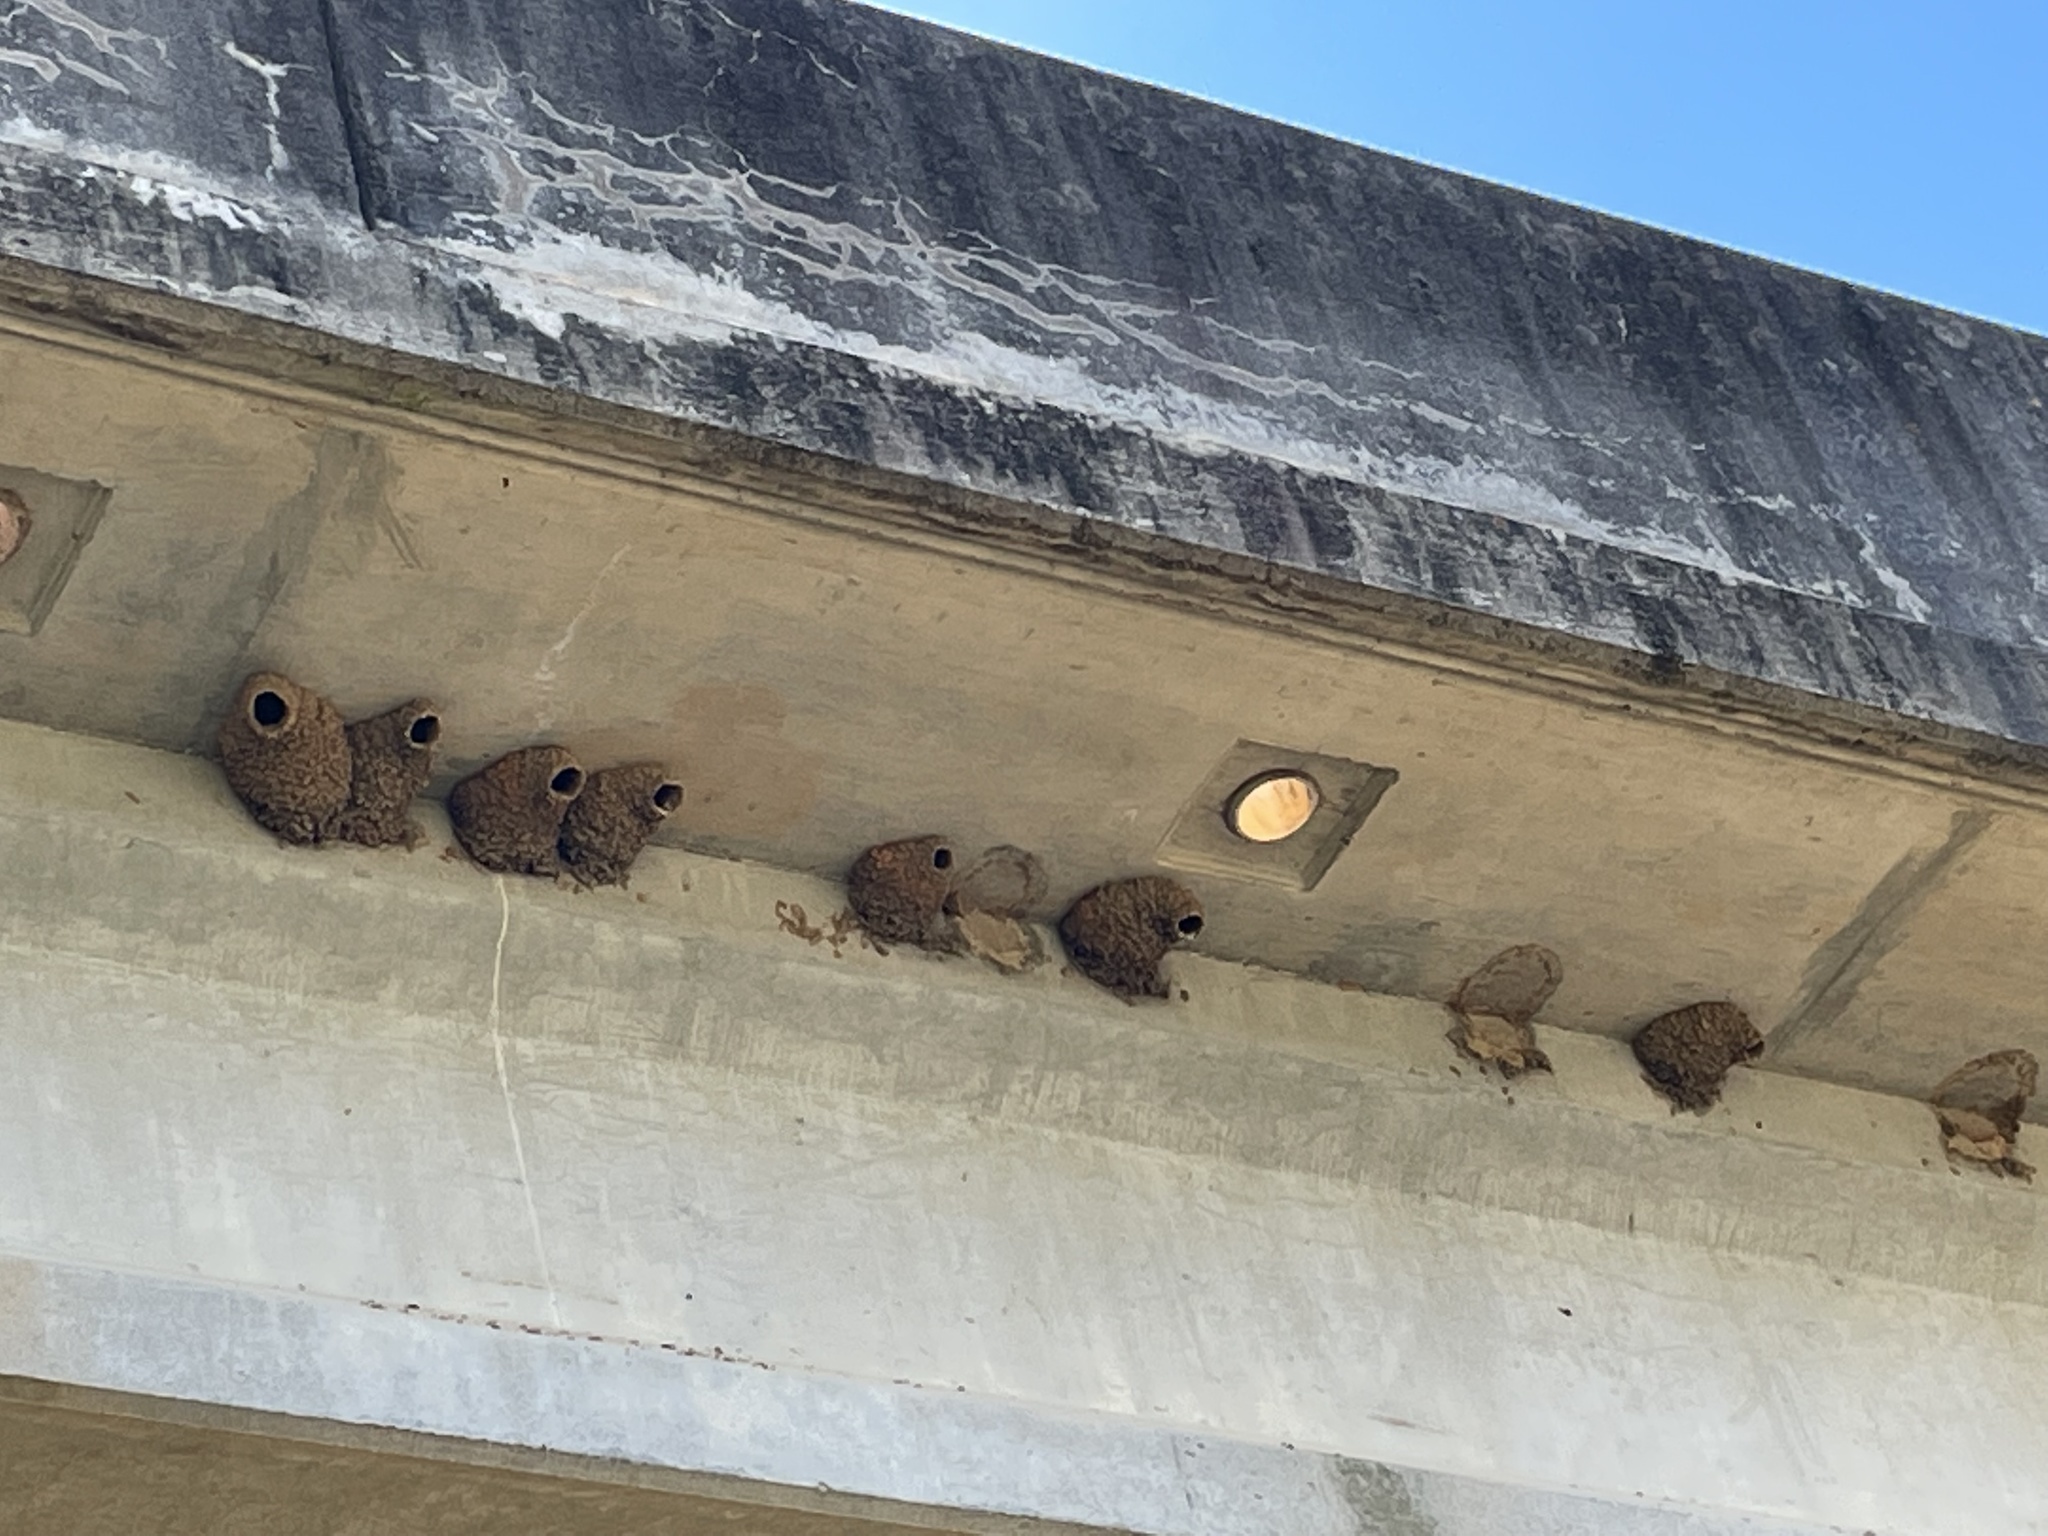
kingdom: Animalia
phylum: Chordata
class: Aves
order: Passeriformes
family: Hirundinidae
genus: Petrochelidon
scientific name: Petrochelidon pyrrhonota
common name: American cliff swallow
